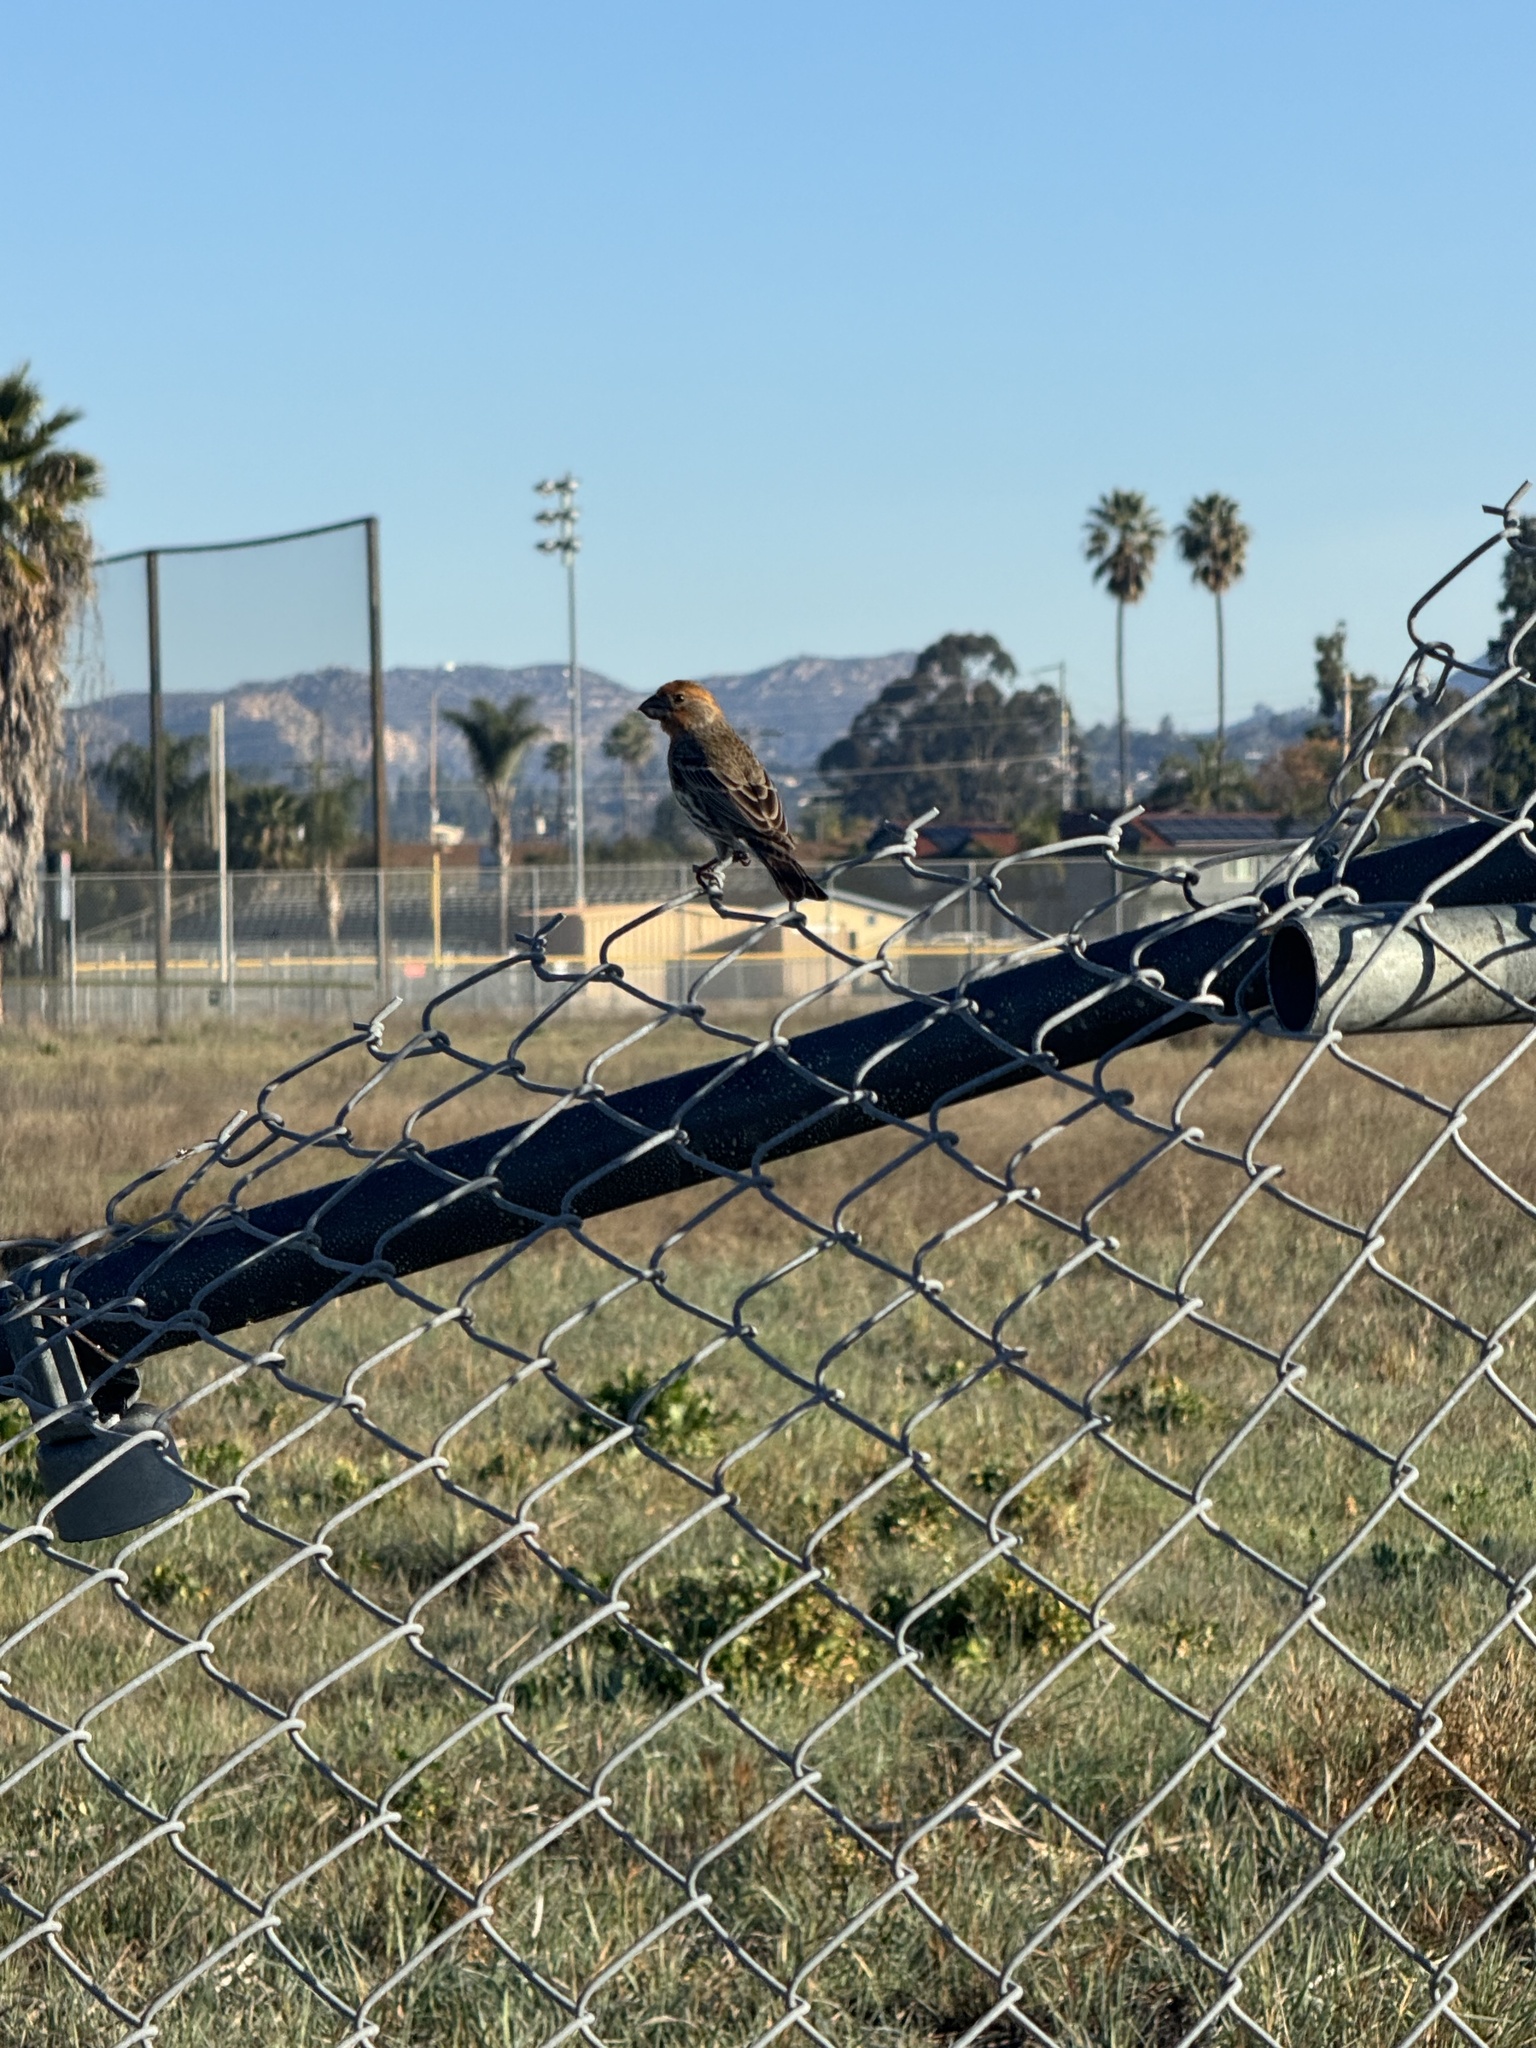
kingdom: Animalia
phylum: Chordata
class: Aves
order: Passeriformes
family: Fringillidae
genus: Haemorhous
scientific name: Haemorhous mexicanus
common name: House finch
